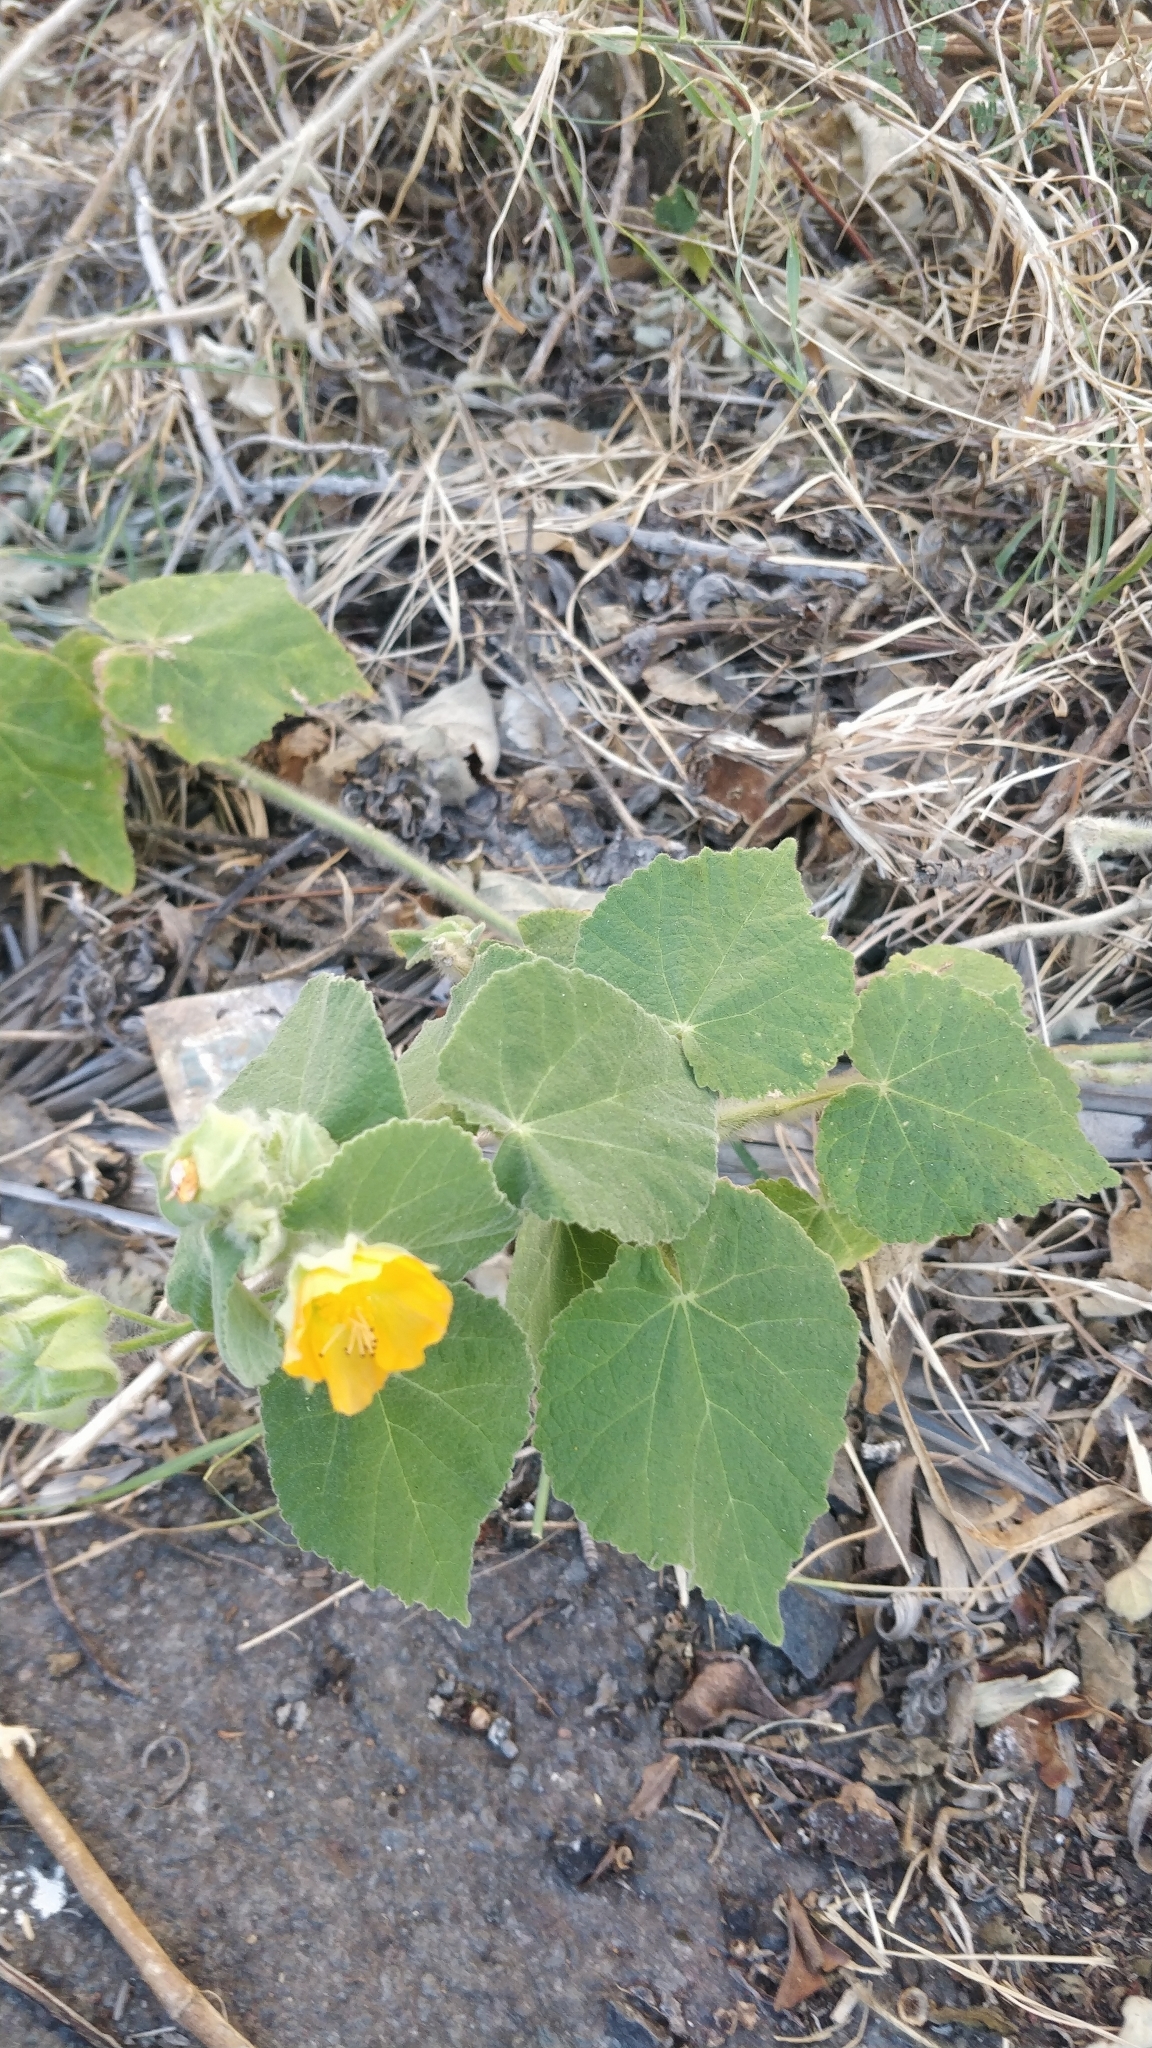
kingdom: Plantae
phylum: Tracheophyta
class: Magnoliopsida
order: Malvales
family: Malvaceae
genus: Abutilon
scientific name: Abutilon grandifolium
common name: Hairy abutilon
